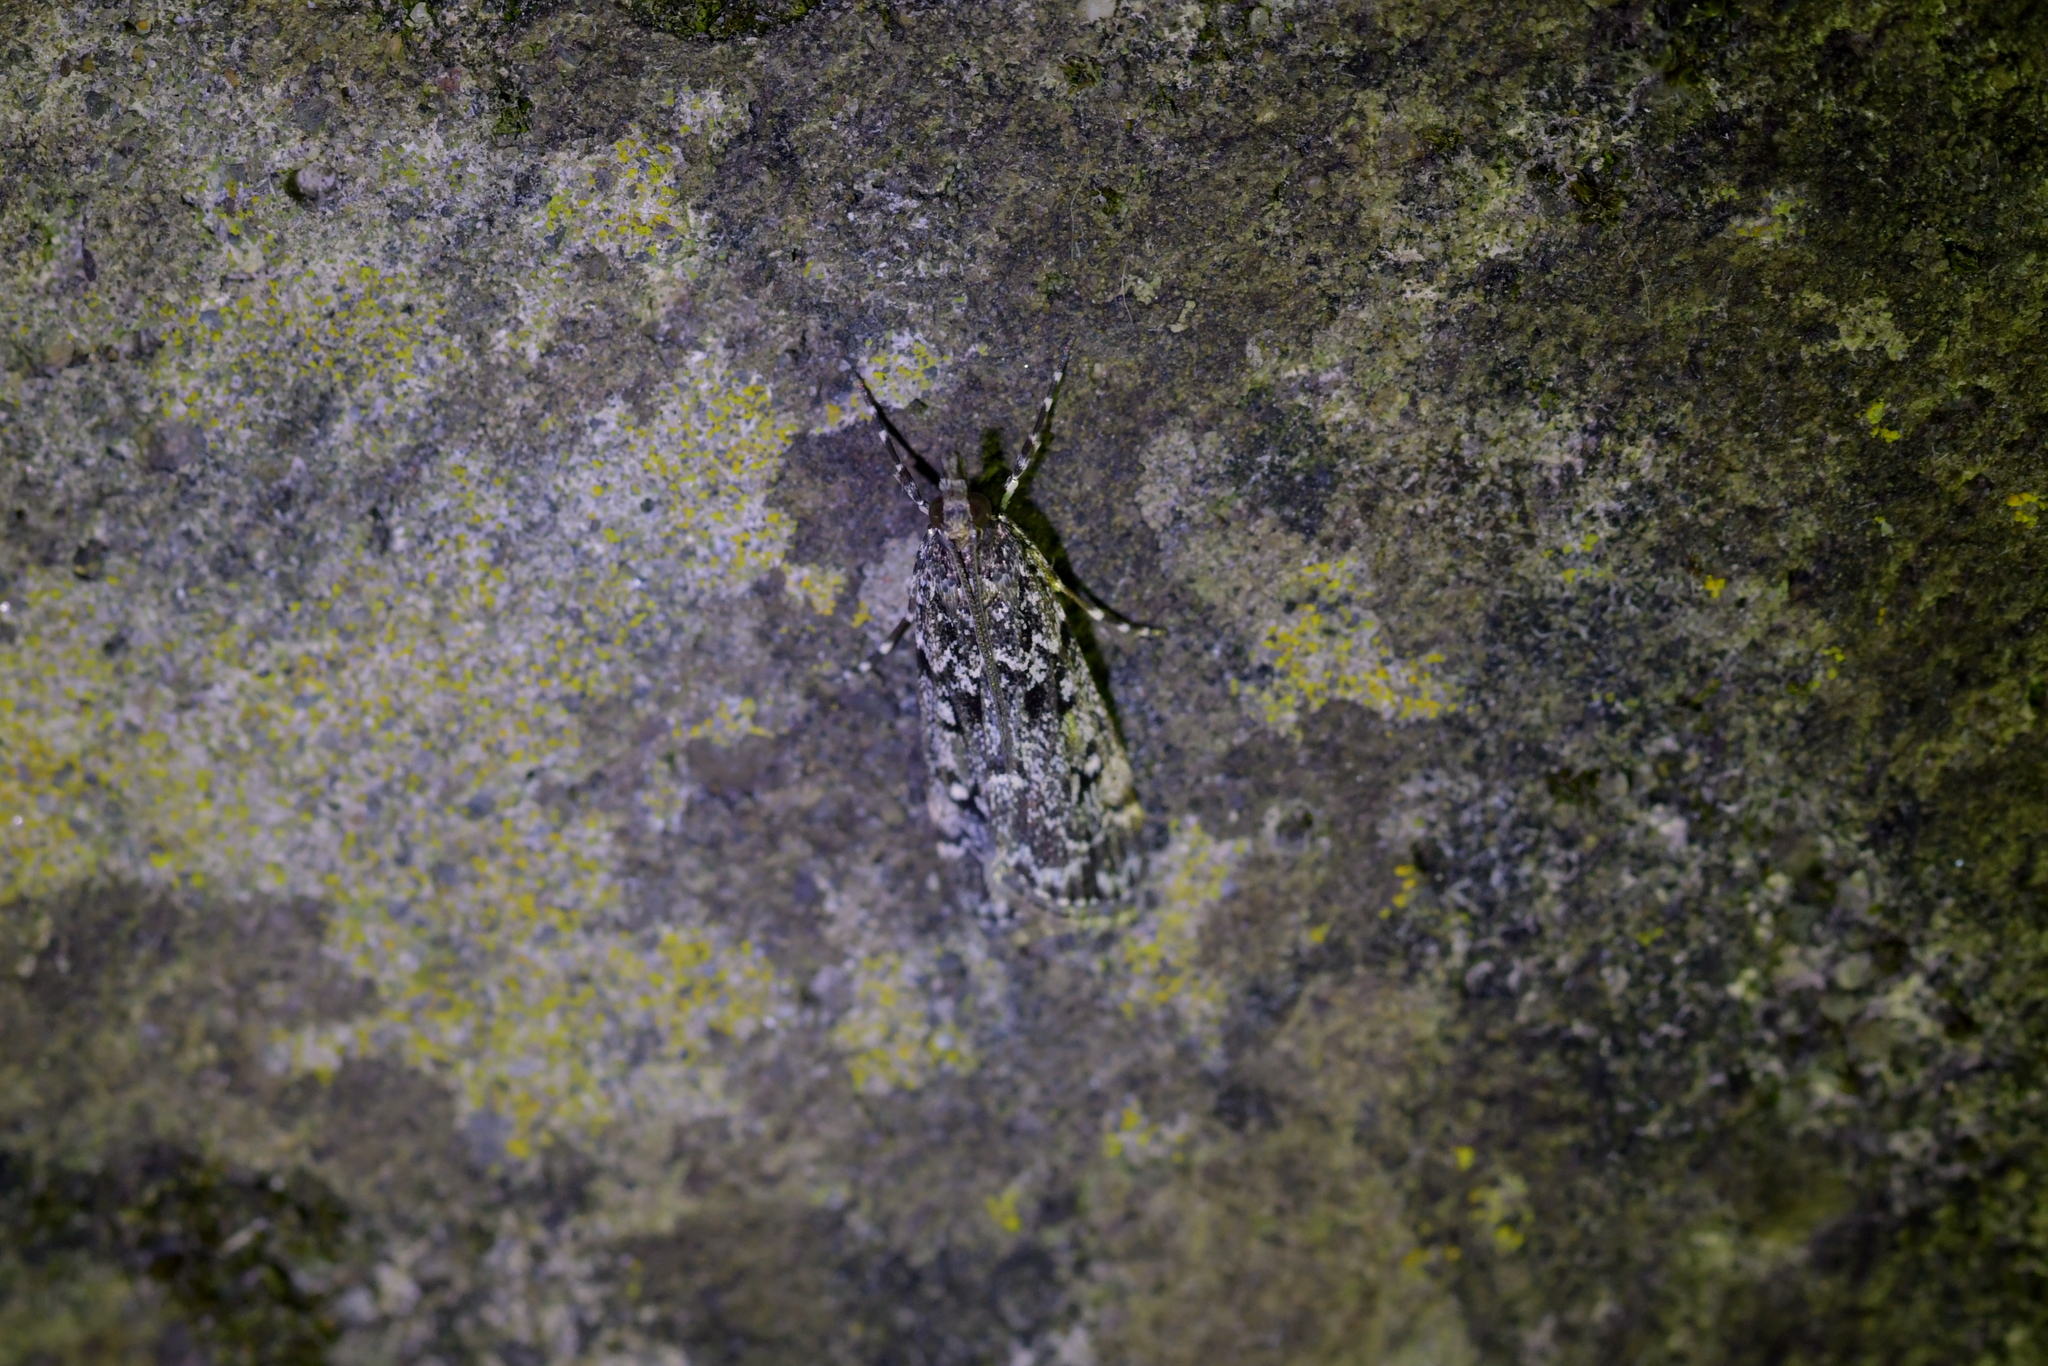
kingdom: Animalia
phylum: Arthropoda
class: Insecta
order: Lepidoptera
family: Crambidae
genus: Eudonia
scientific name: Eudonia philerga
